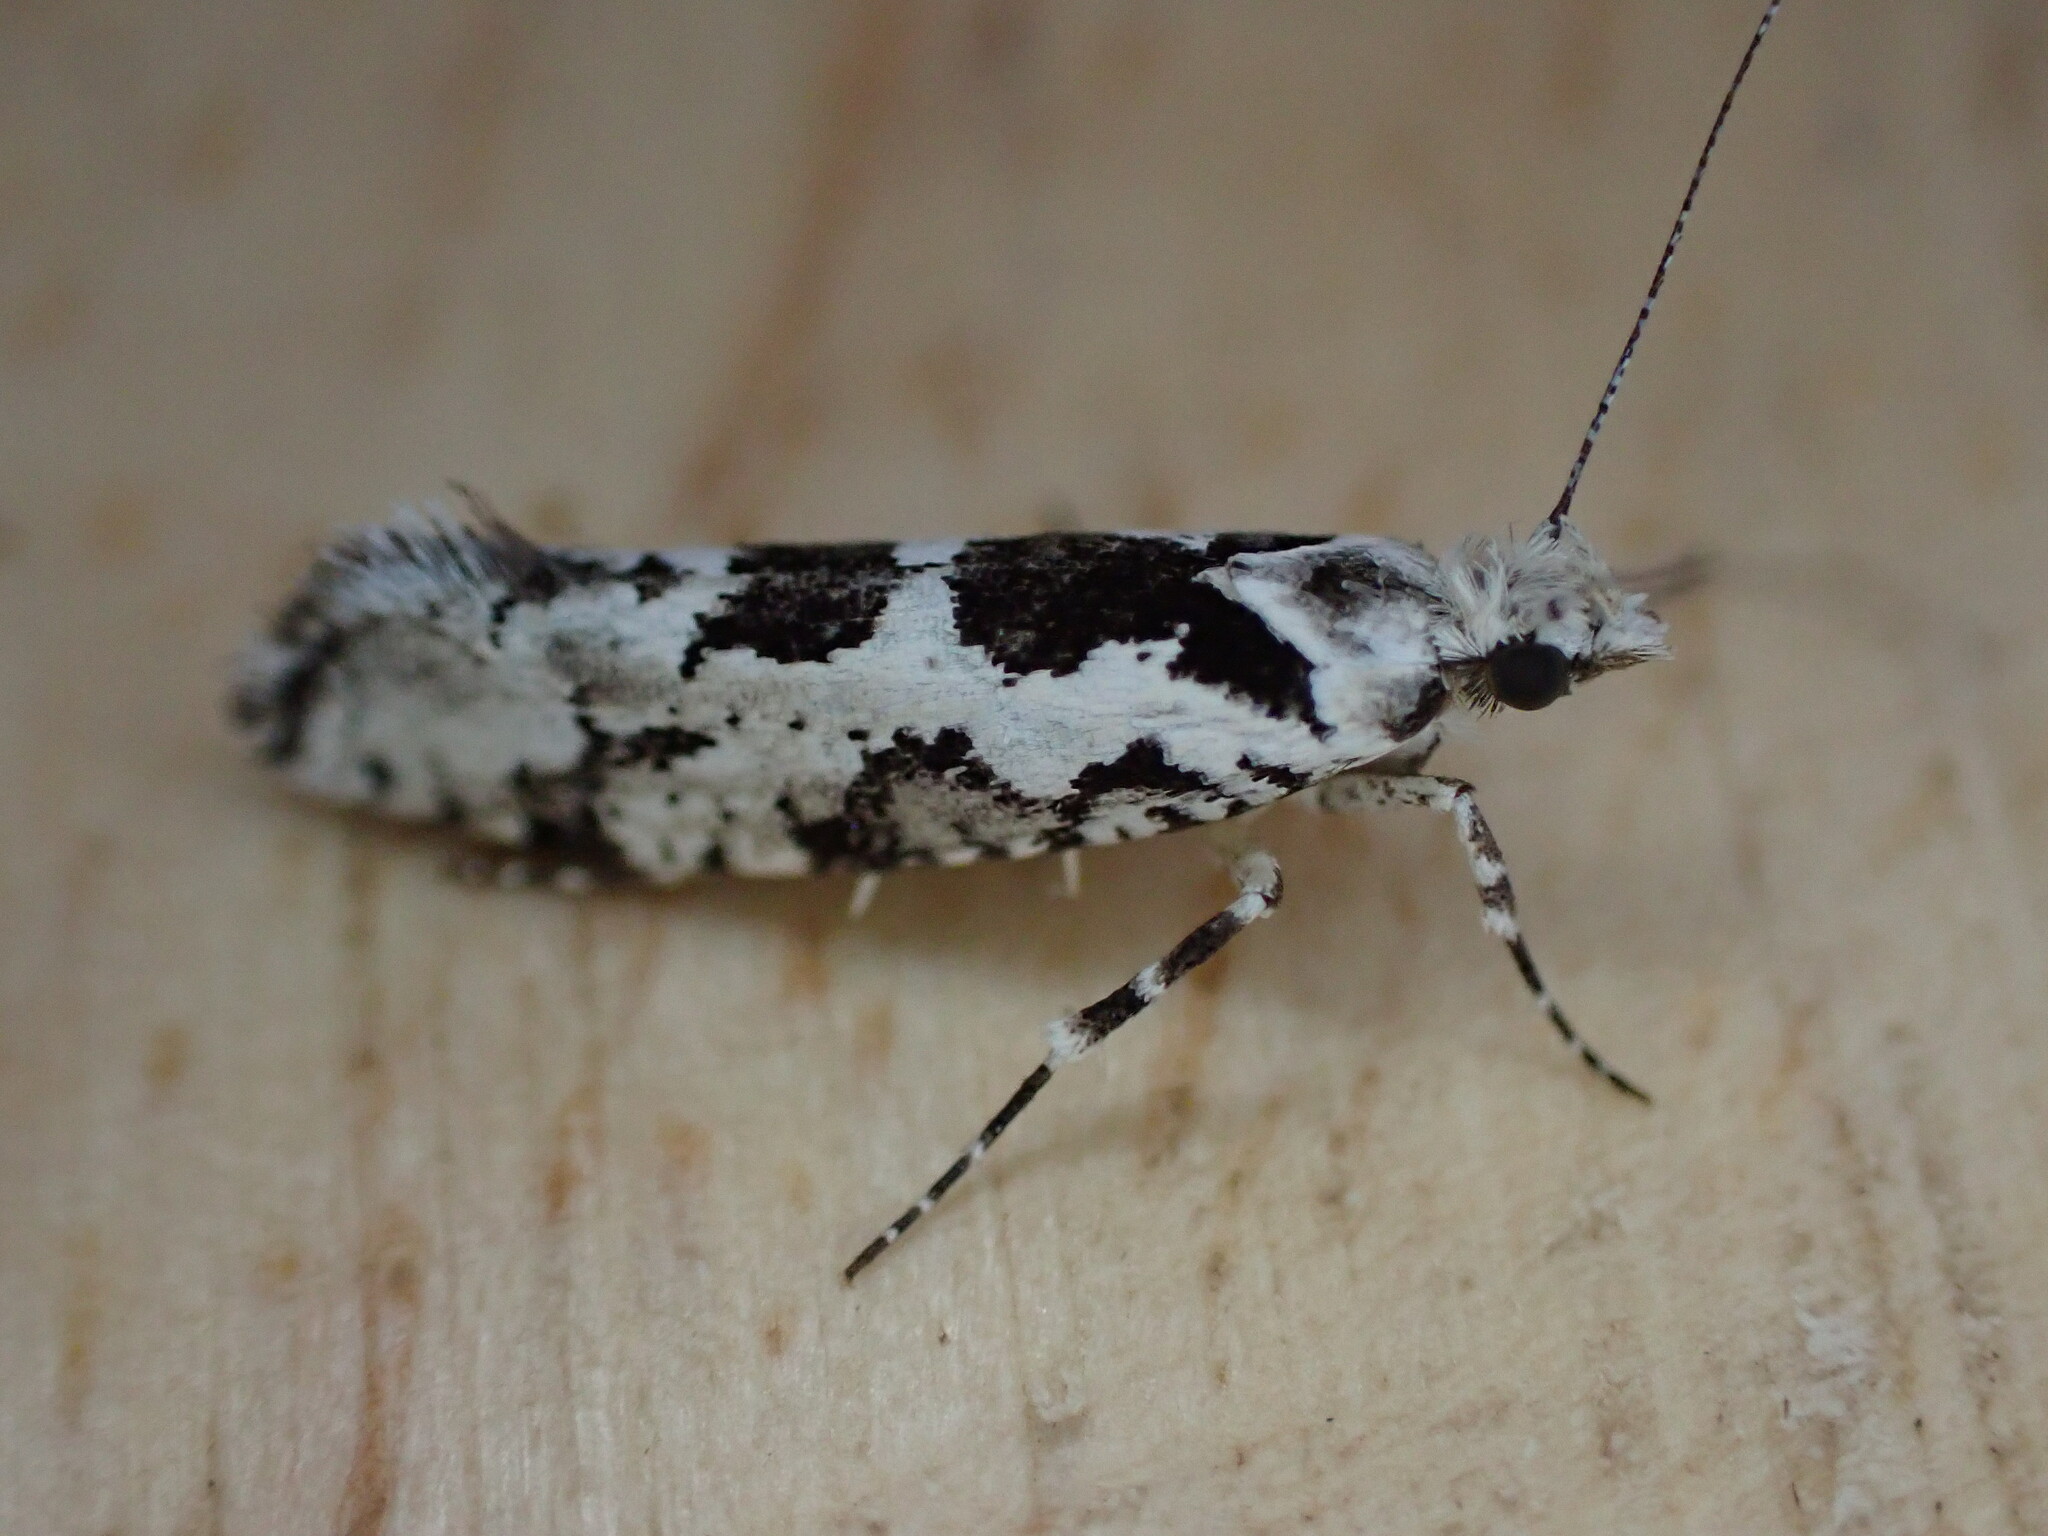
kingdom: Animalia
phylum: Arthropoda
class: Insecta
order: Lepidoptera
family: Plutellidae
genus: Ypsolophus
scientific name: Ypsolophus sequella
